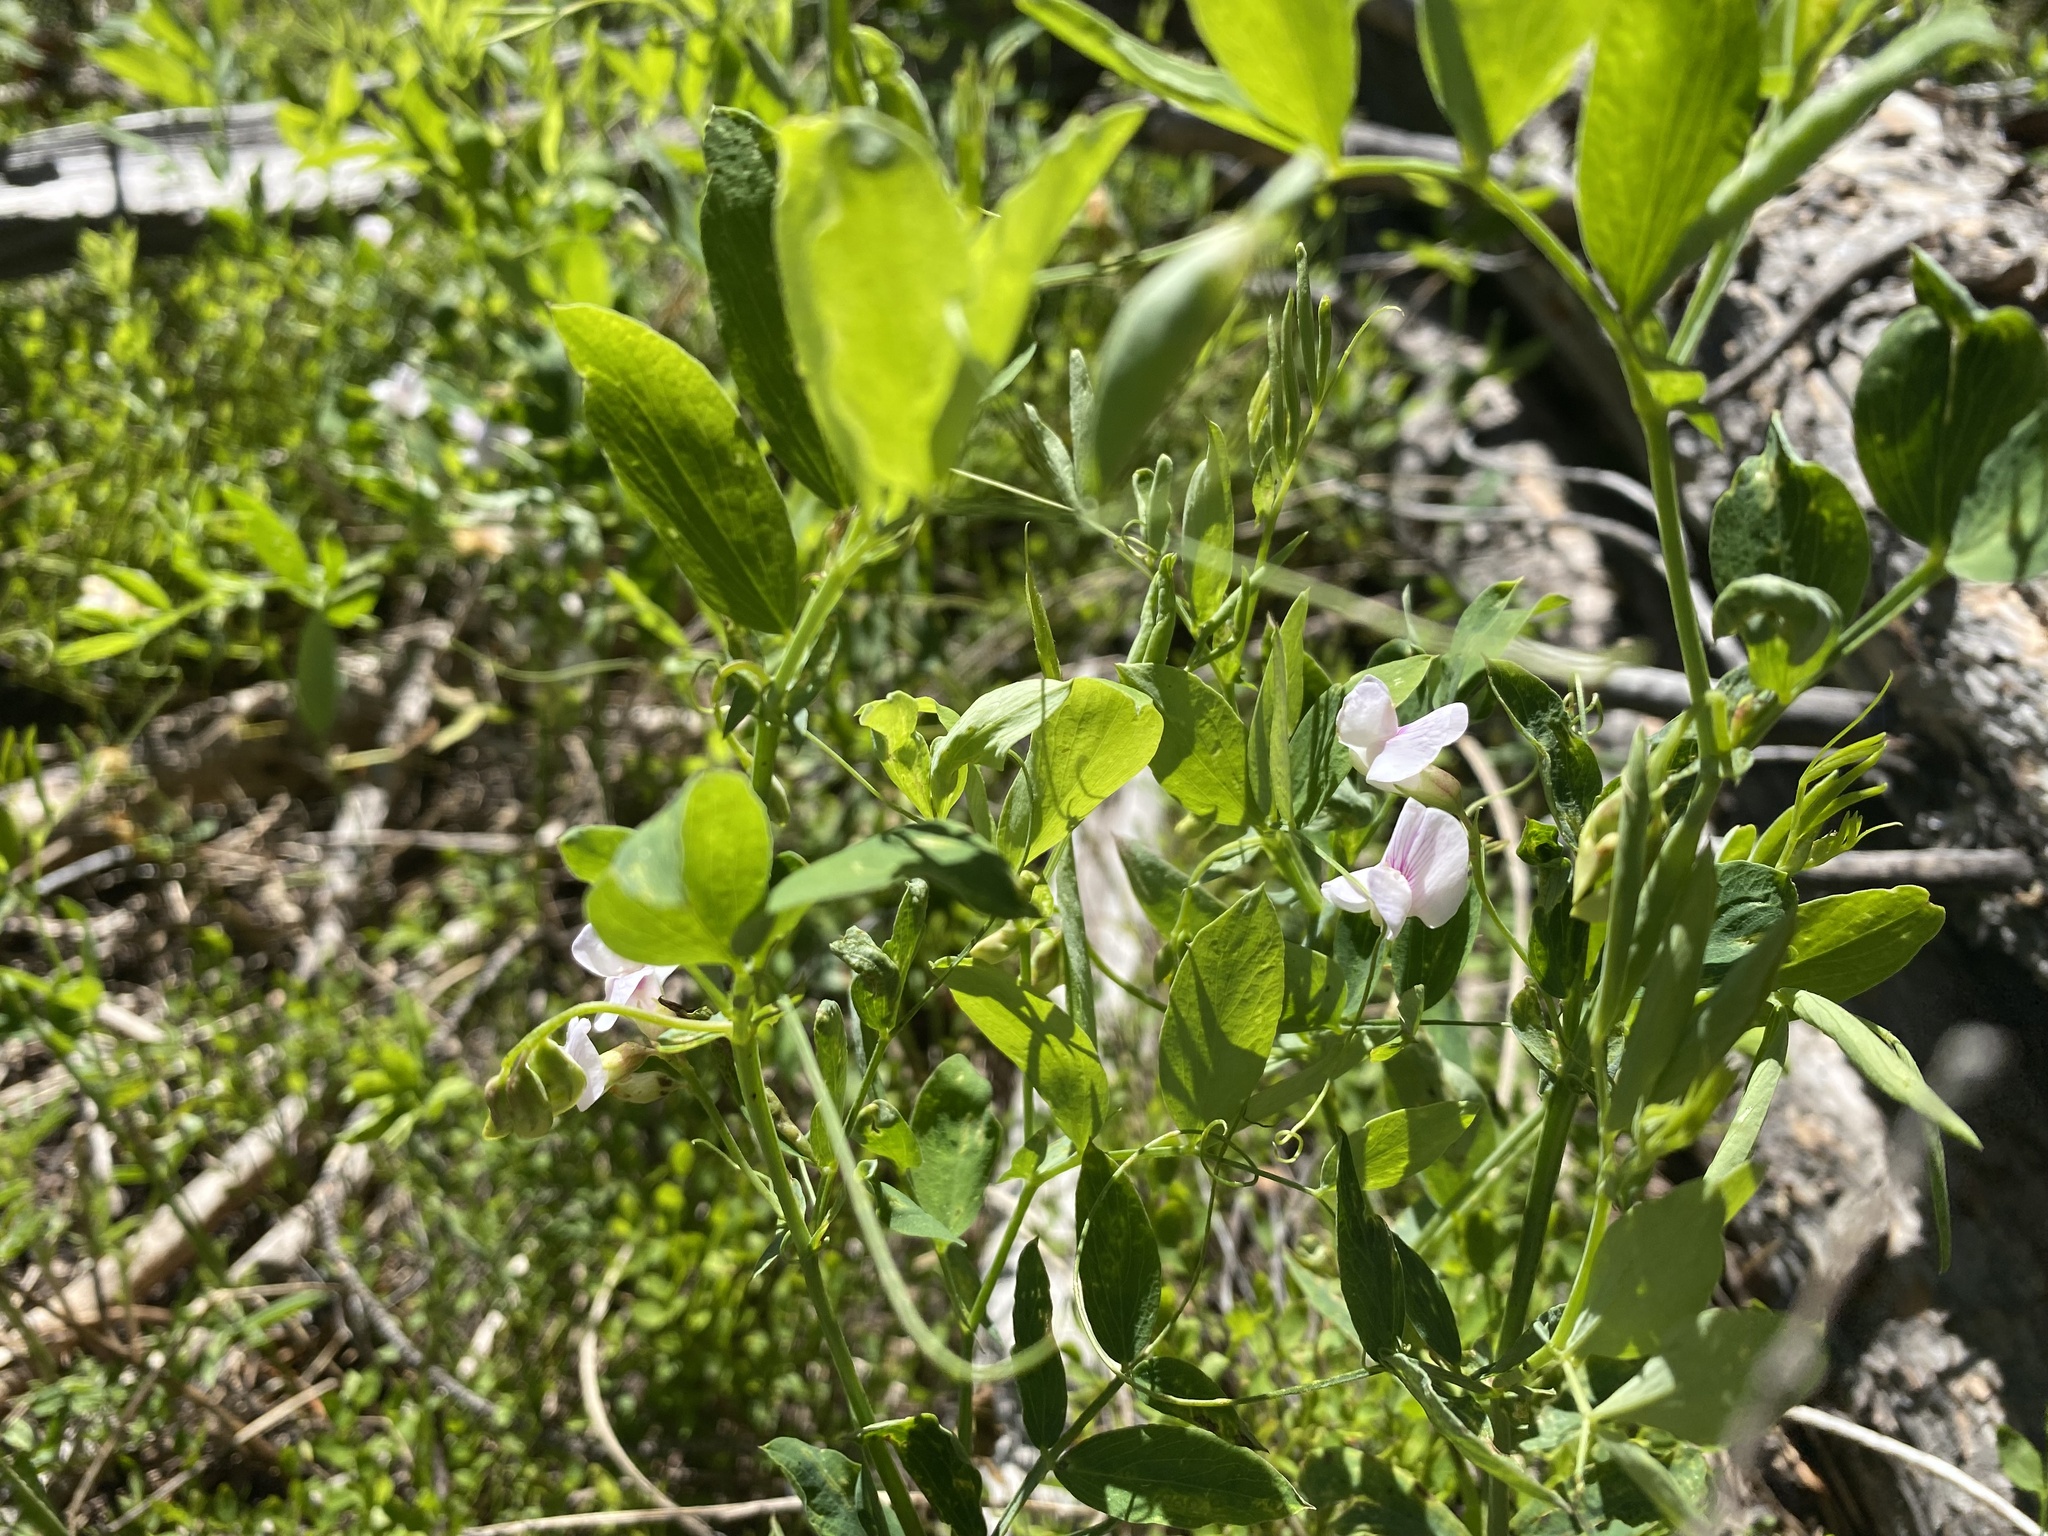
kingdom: Plantae
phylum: Tracheophyta
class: Magnoliopsida
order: Fabales
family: Fabaceae
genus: Lathyrus
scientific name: Lathyrus lanszwertii
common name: Lanszwert's vetchling
